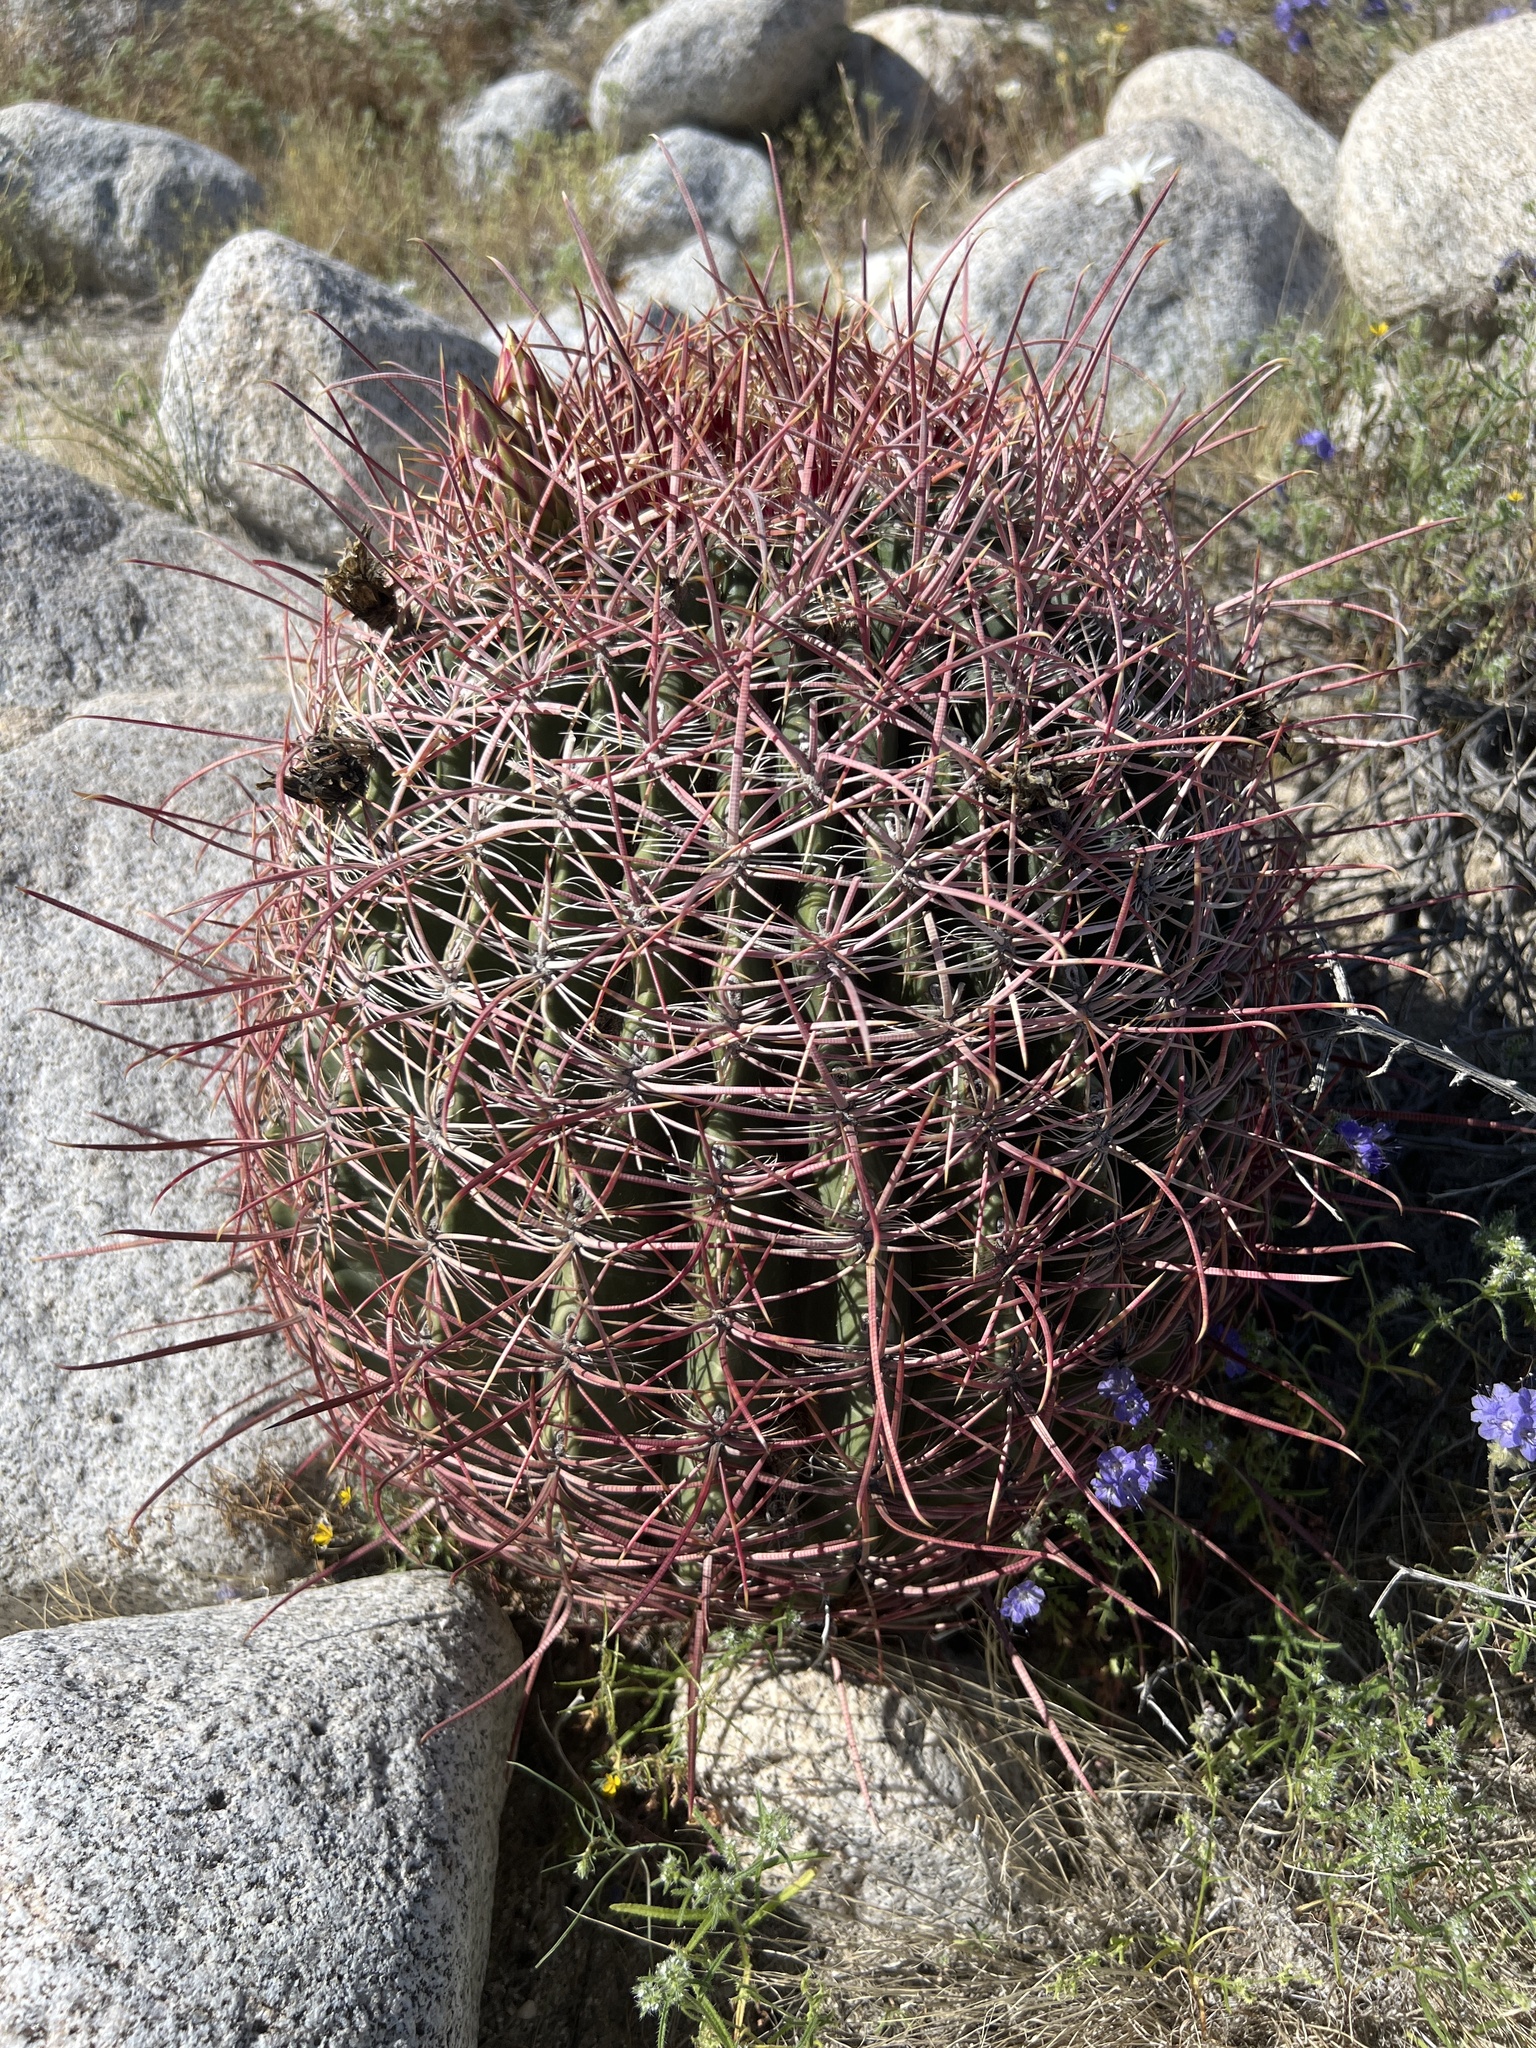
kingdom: Plantae
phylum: Tracheophyta
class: Magnoliopsida
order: Caryophyllales
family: Cactaceae
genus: Ferocactus
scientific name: Ferocactus cylindraceus
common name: California barrel cactus
